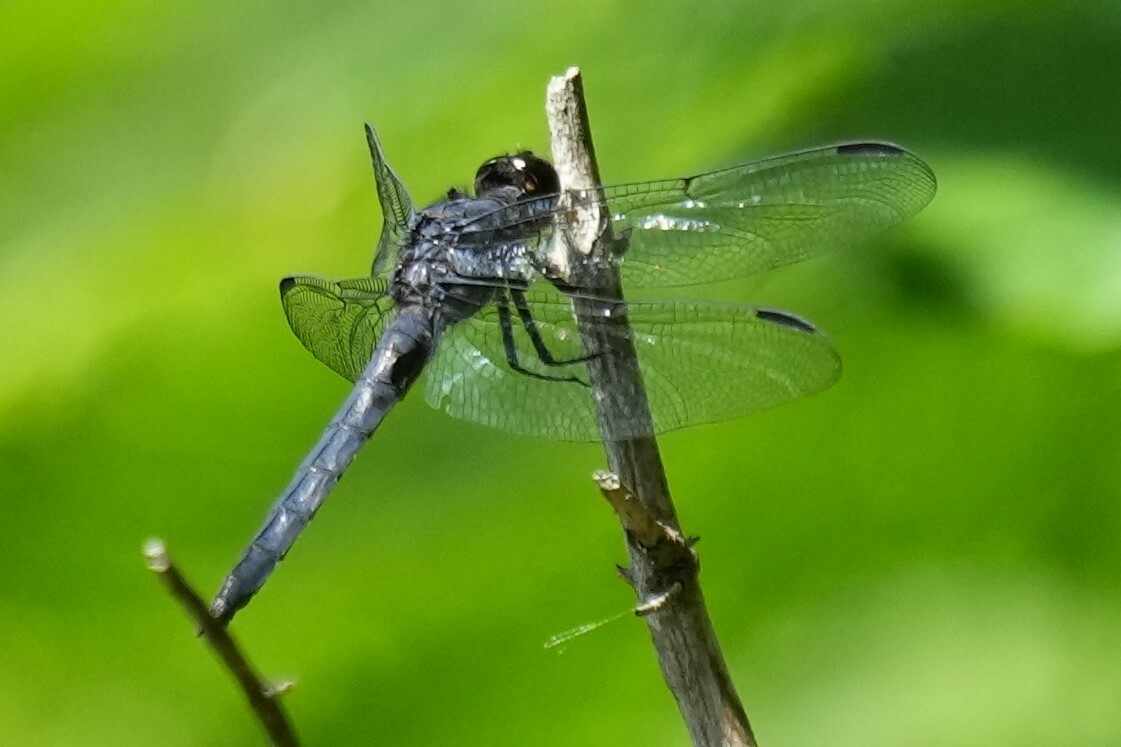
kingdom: Animalia
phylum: Arthropoda
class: Insecta
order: Odonata
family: Libellulidae
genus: Libellula
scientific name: Libellula incesta
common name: Slaty skimmer
